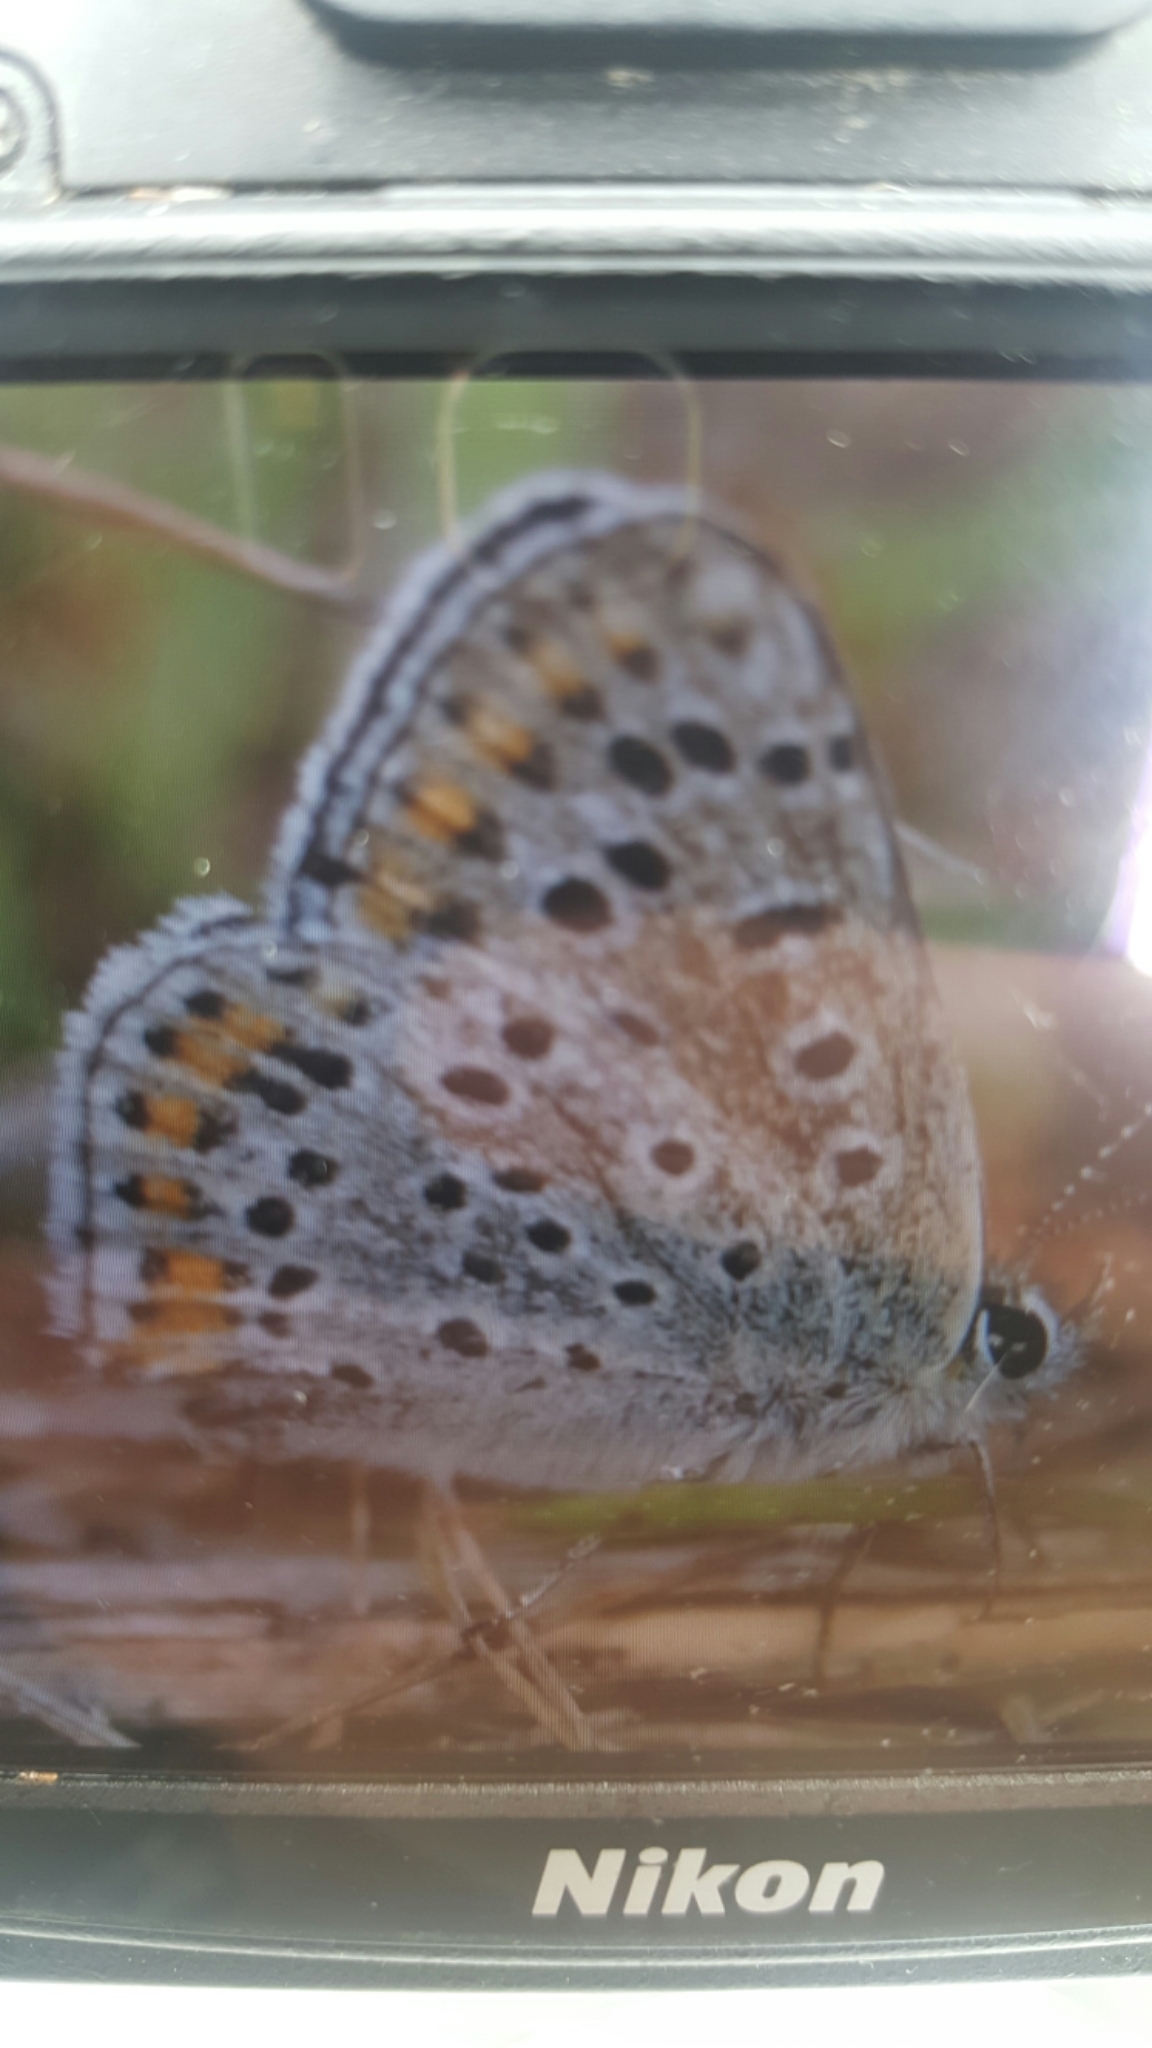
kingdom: Animalia
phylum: Arthropoda
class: Insecta
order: Lepidoptera
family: Lycaenidae
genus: Loweia
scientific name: Loweia tityrus
